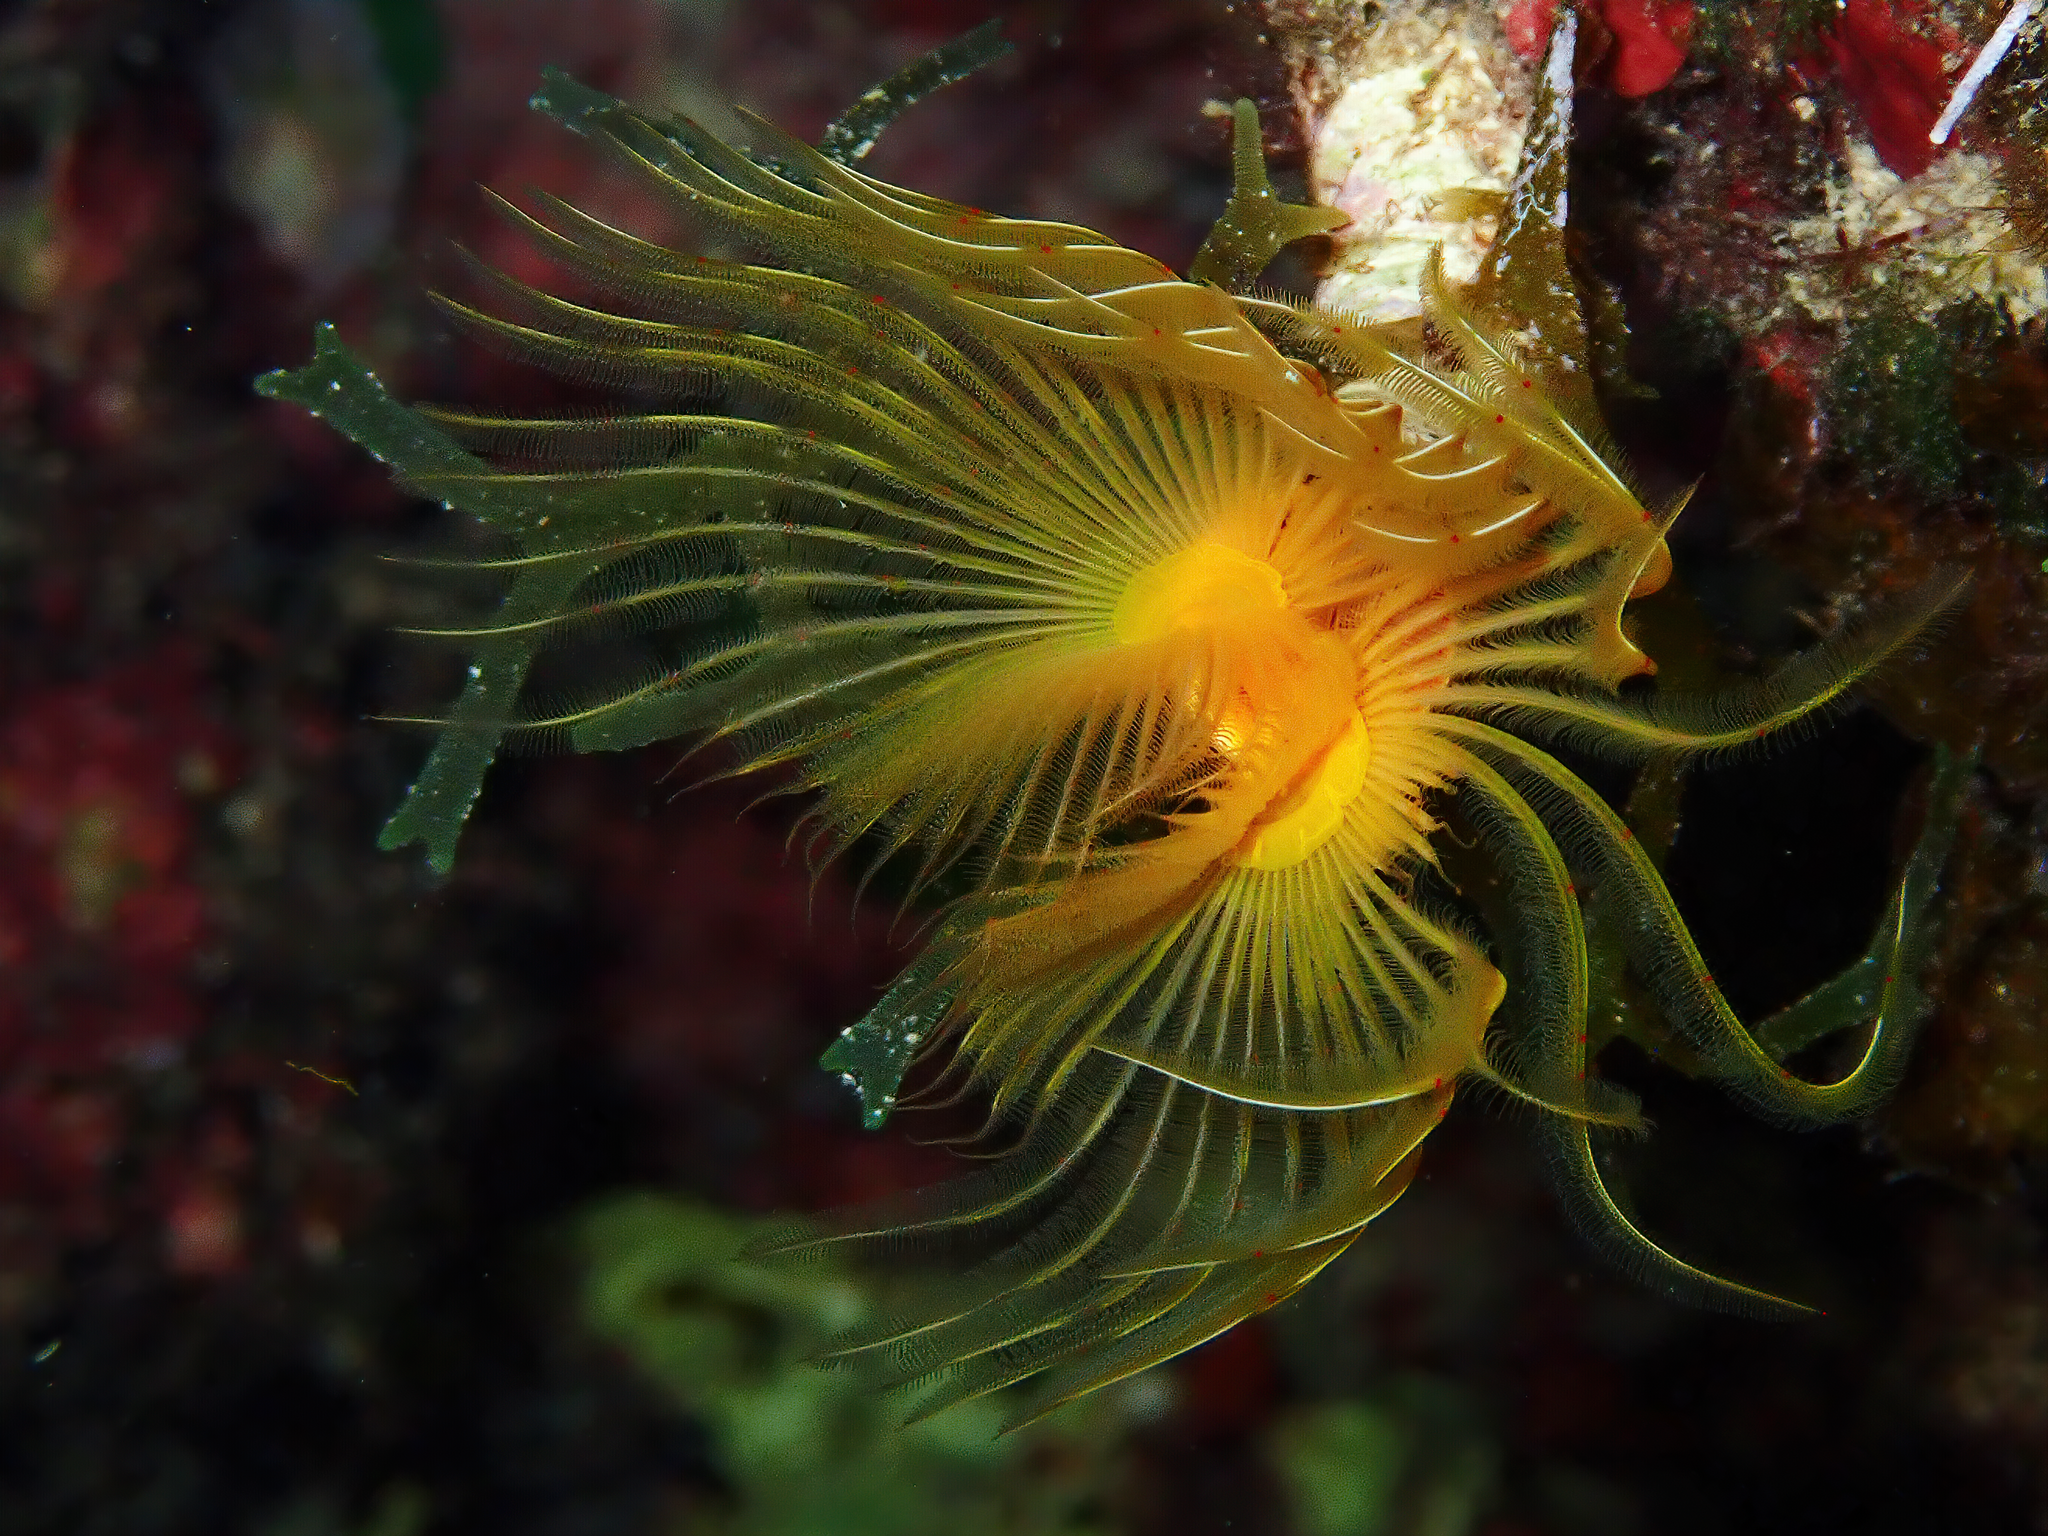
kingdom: Animalia
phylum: Annelida
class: Polychaeta
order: Sabellida
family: Serpulidae
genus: Protula
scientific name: Protula tubularia
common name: Red-spotted horseshoe
